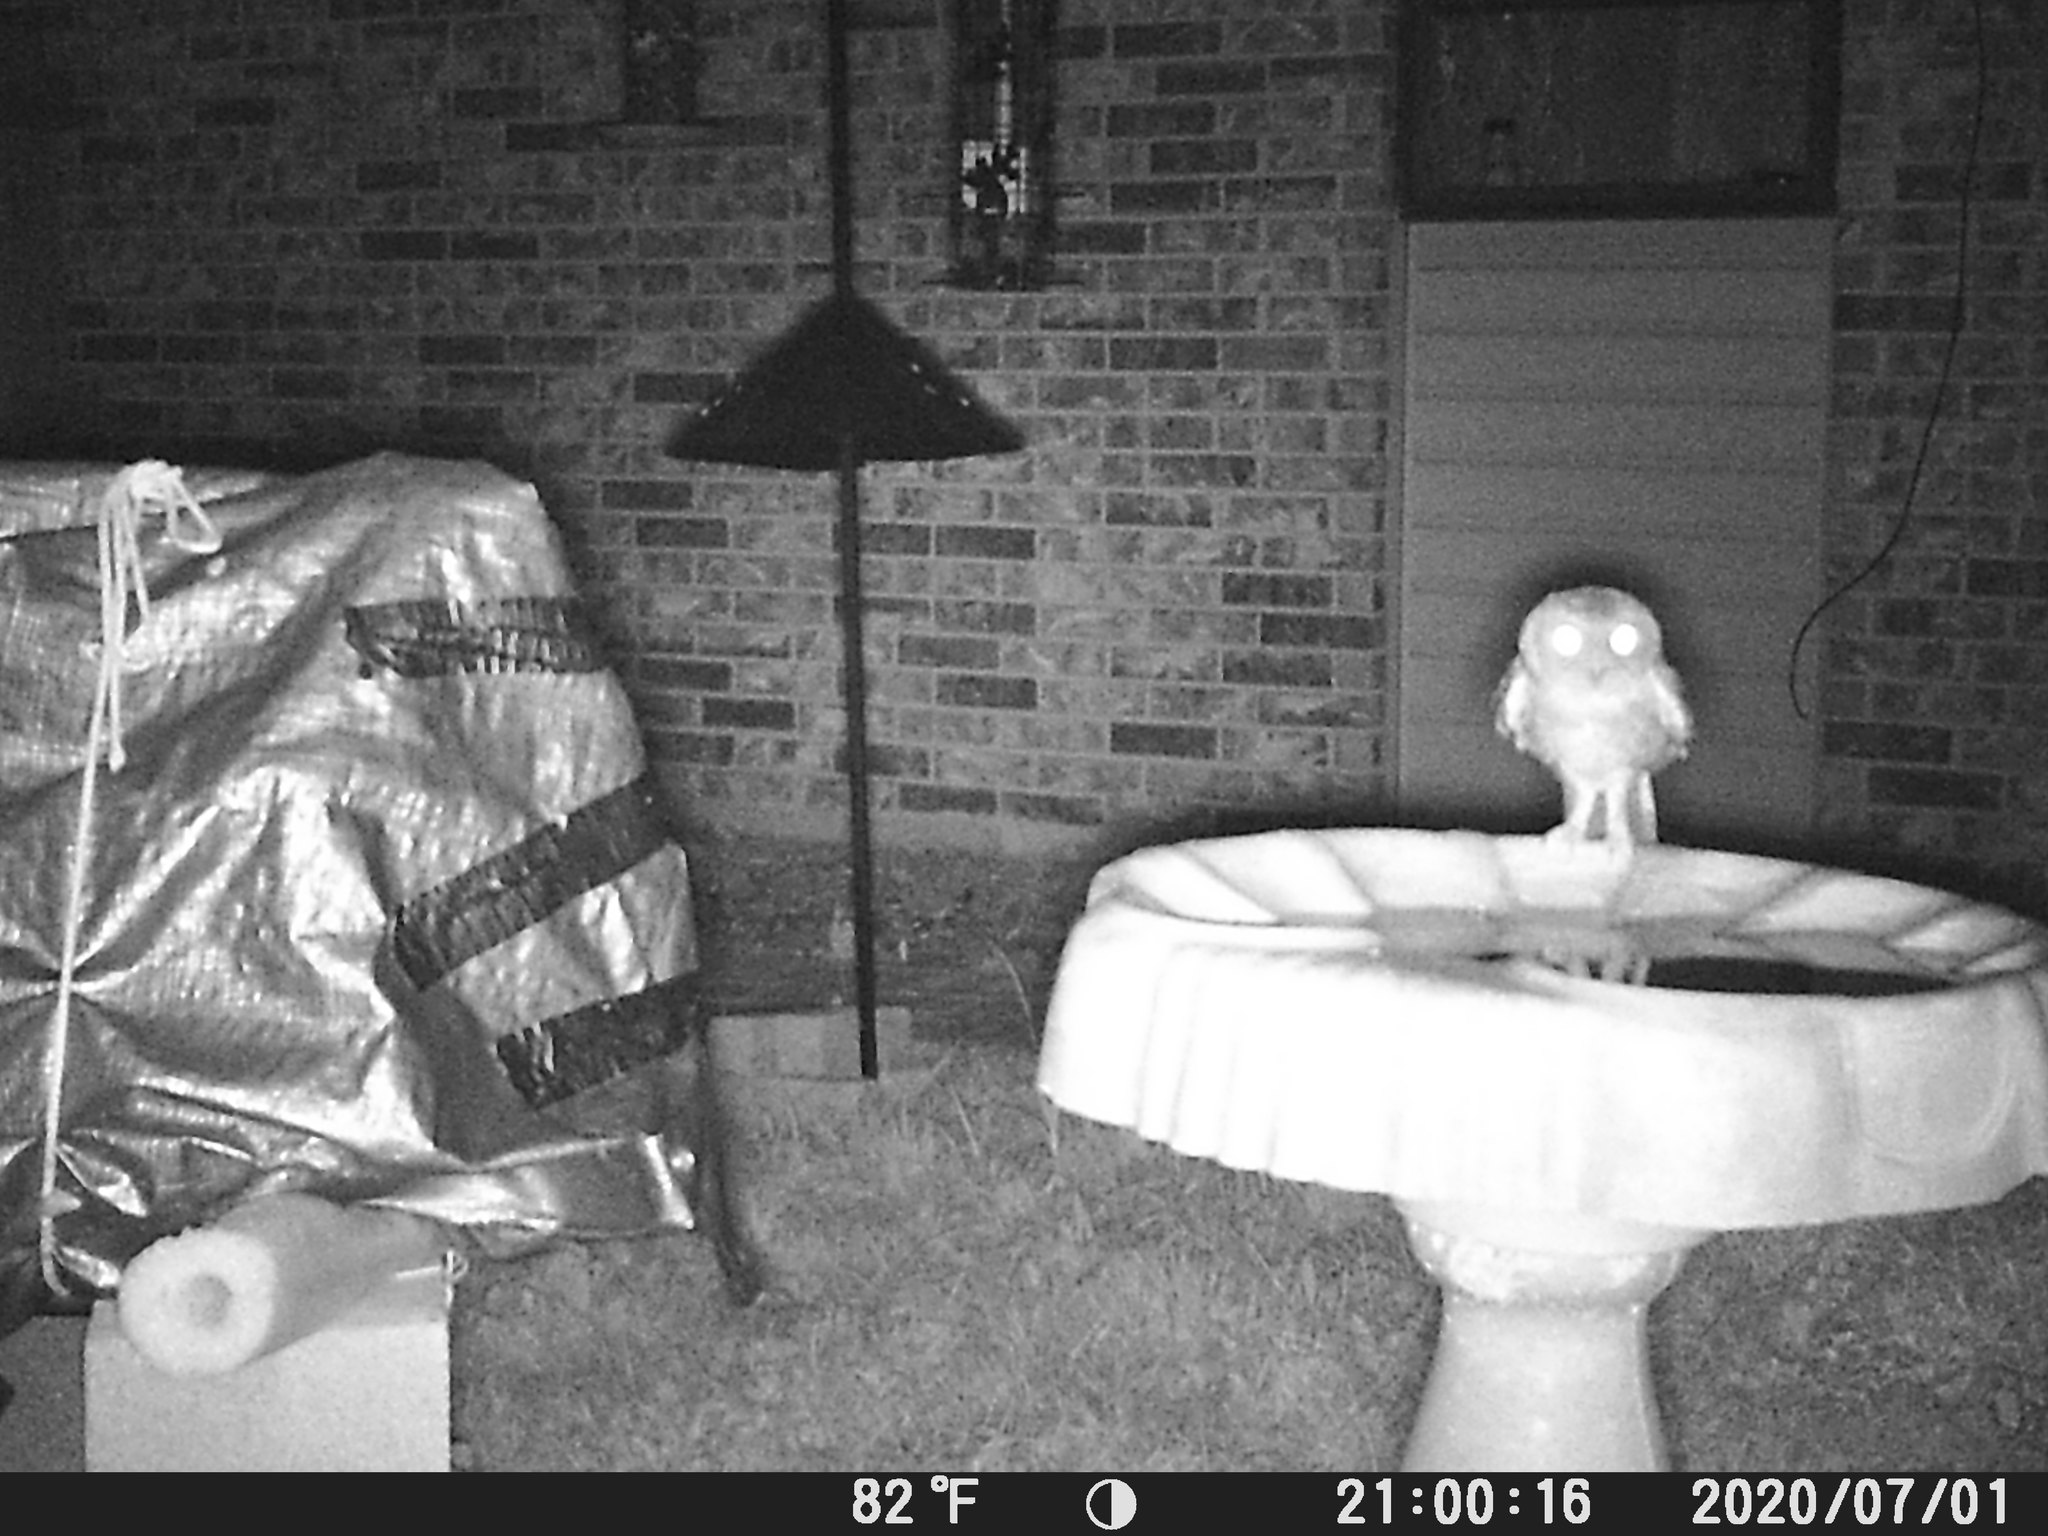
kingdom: Animalia
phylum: Chordata
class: Aves
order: Strigiformes
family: Strigidae
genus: Megascops
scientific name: Megascops asio
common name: Eastern screech-owl
